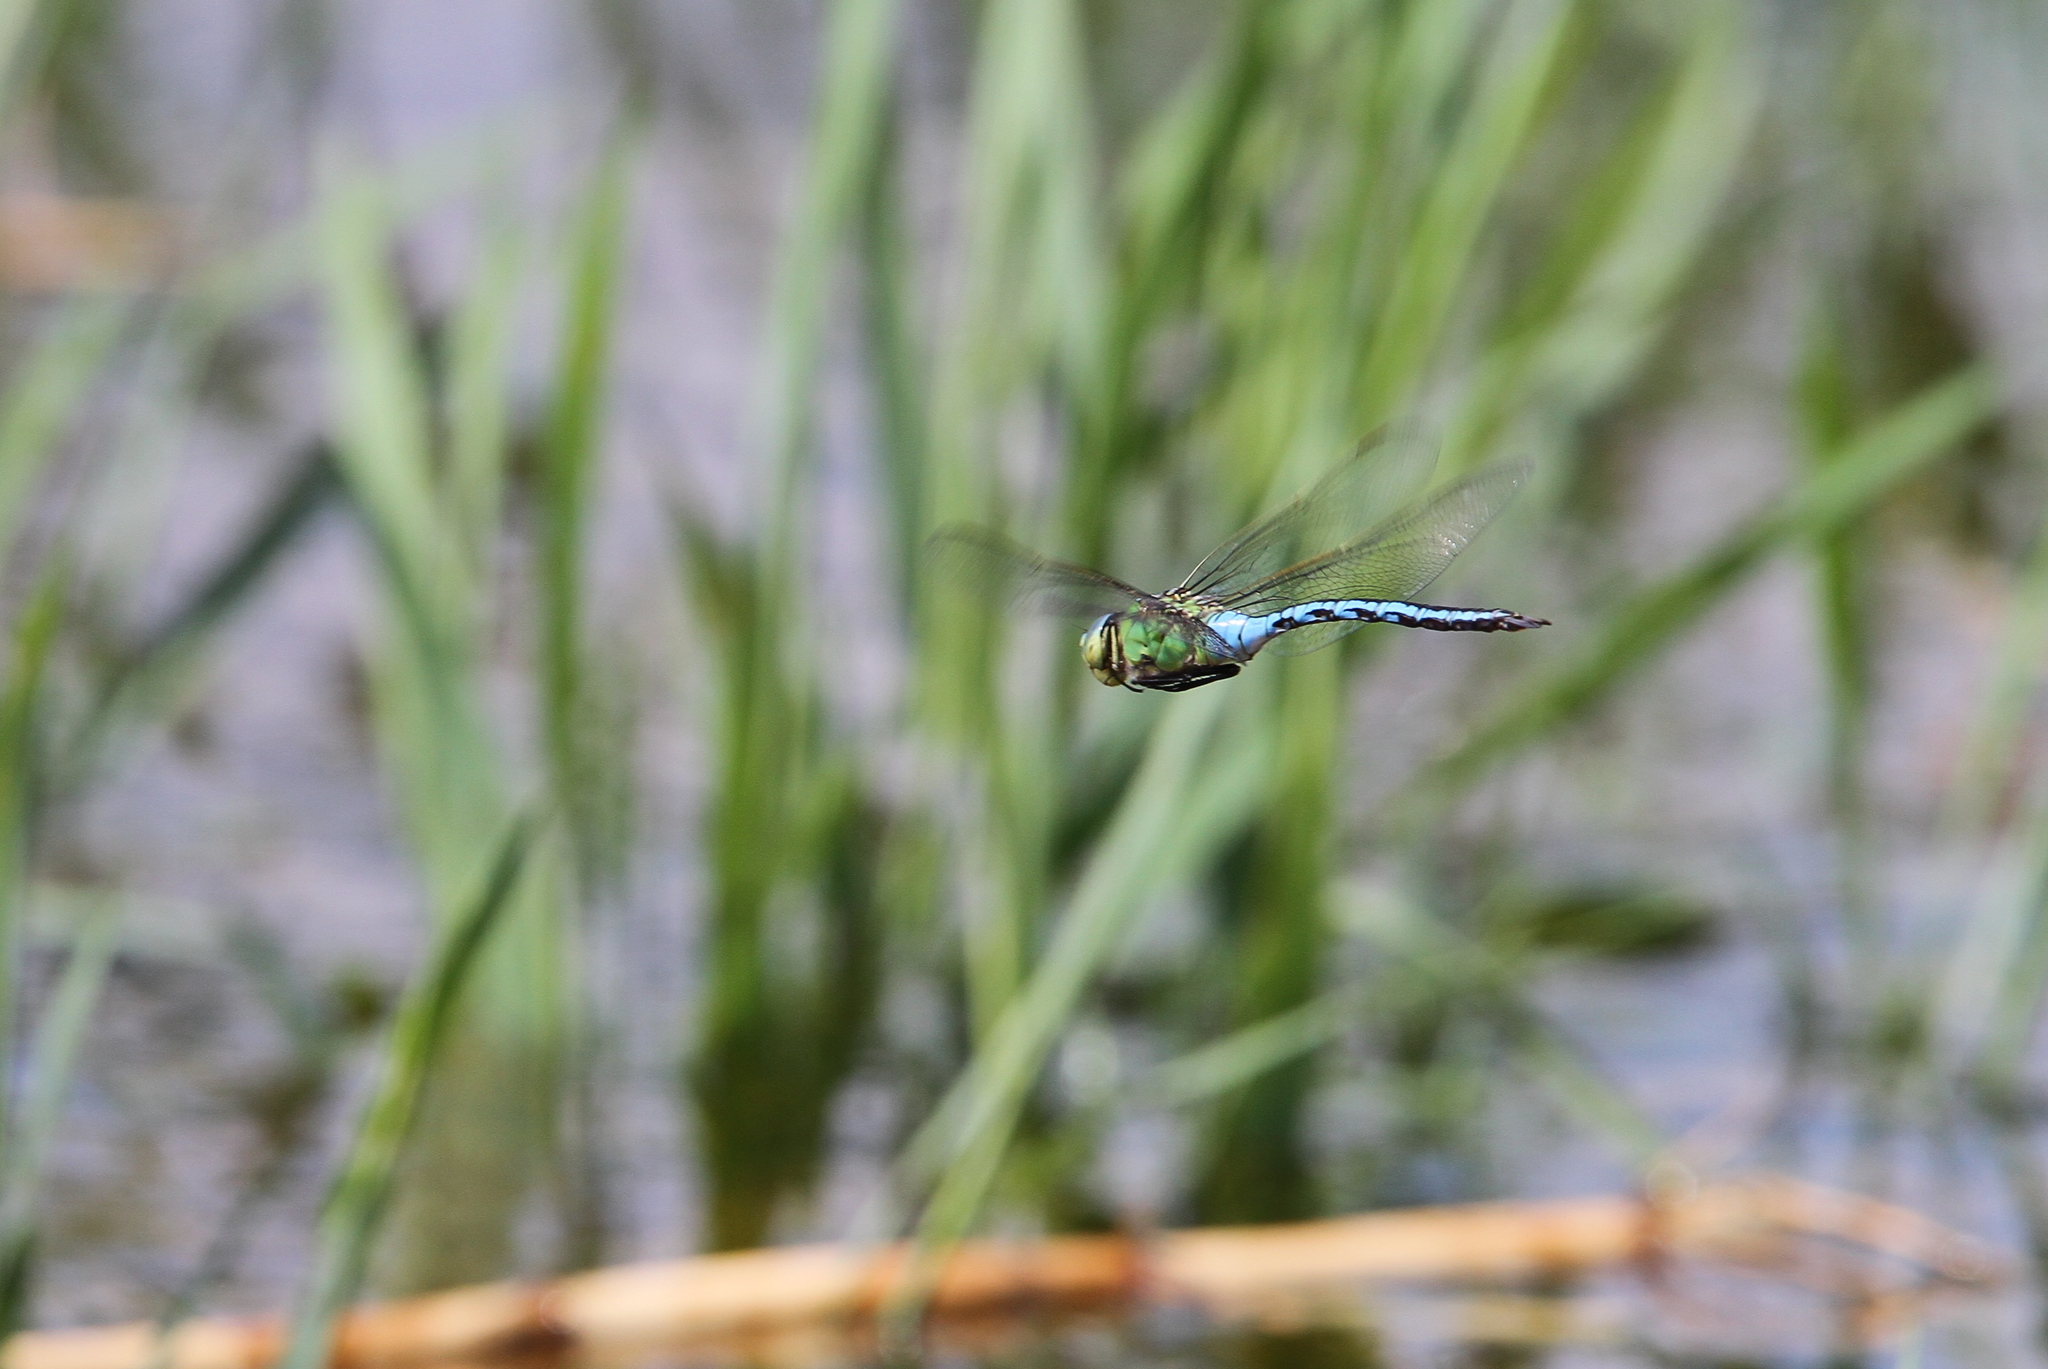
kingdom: Animalia
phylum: Arthropoda
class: Insecta
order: Odonata
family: Aeshnidae
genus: Anax
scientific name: Anax imperator
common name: Emperor dragonfly
